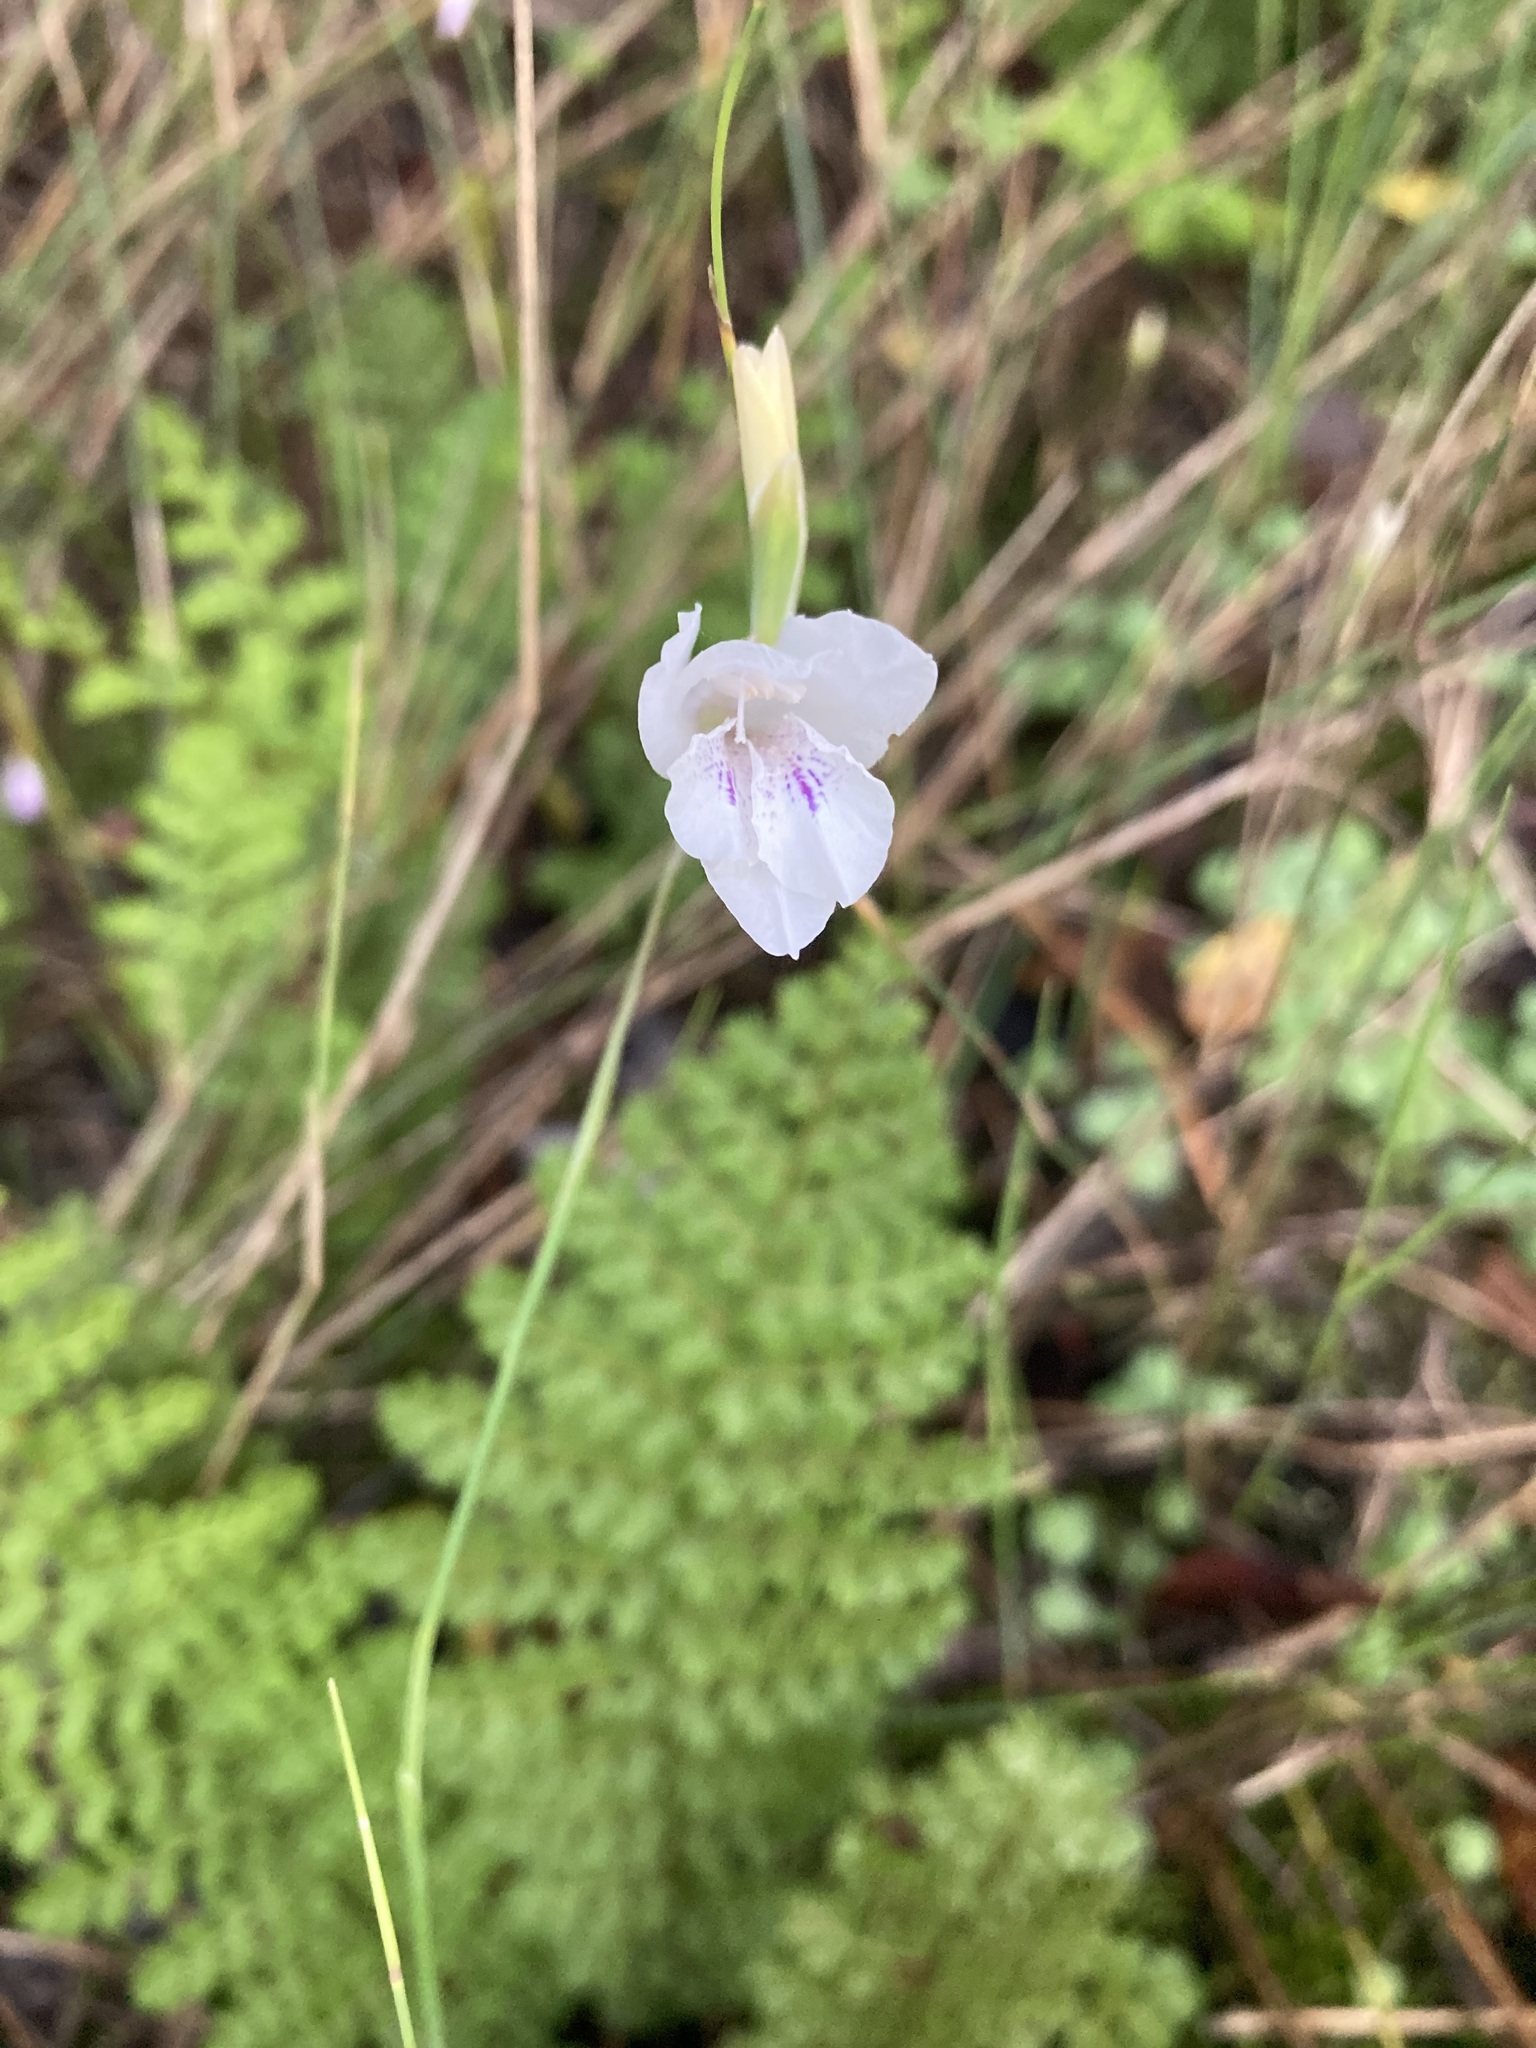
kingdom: Plantae
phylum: Tracheophyta
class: Liliopsida
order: Asparagales
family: Iridaceae
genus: Gladiolus
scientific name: Gladiolus vaginatus
